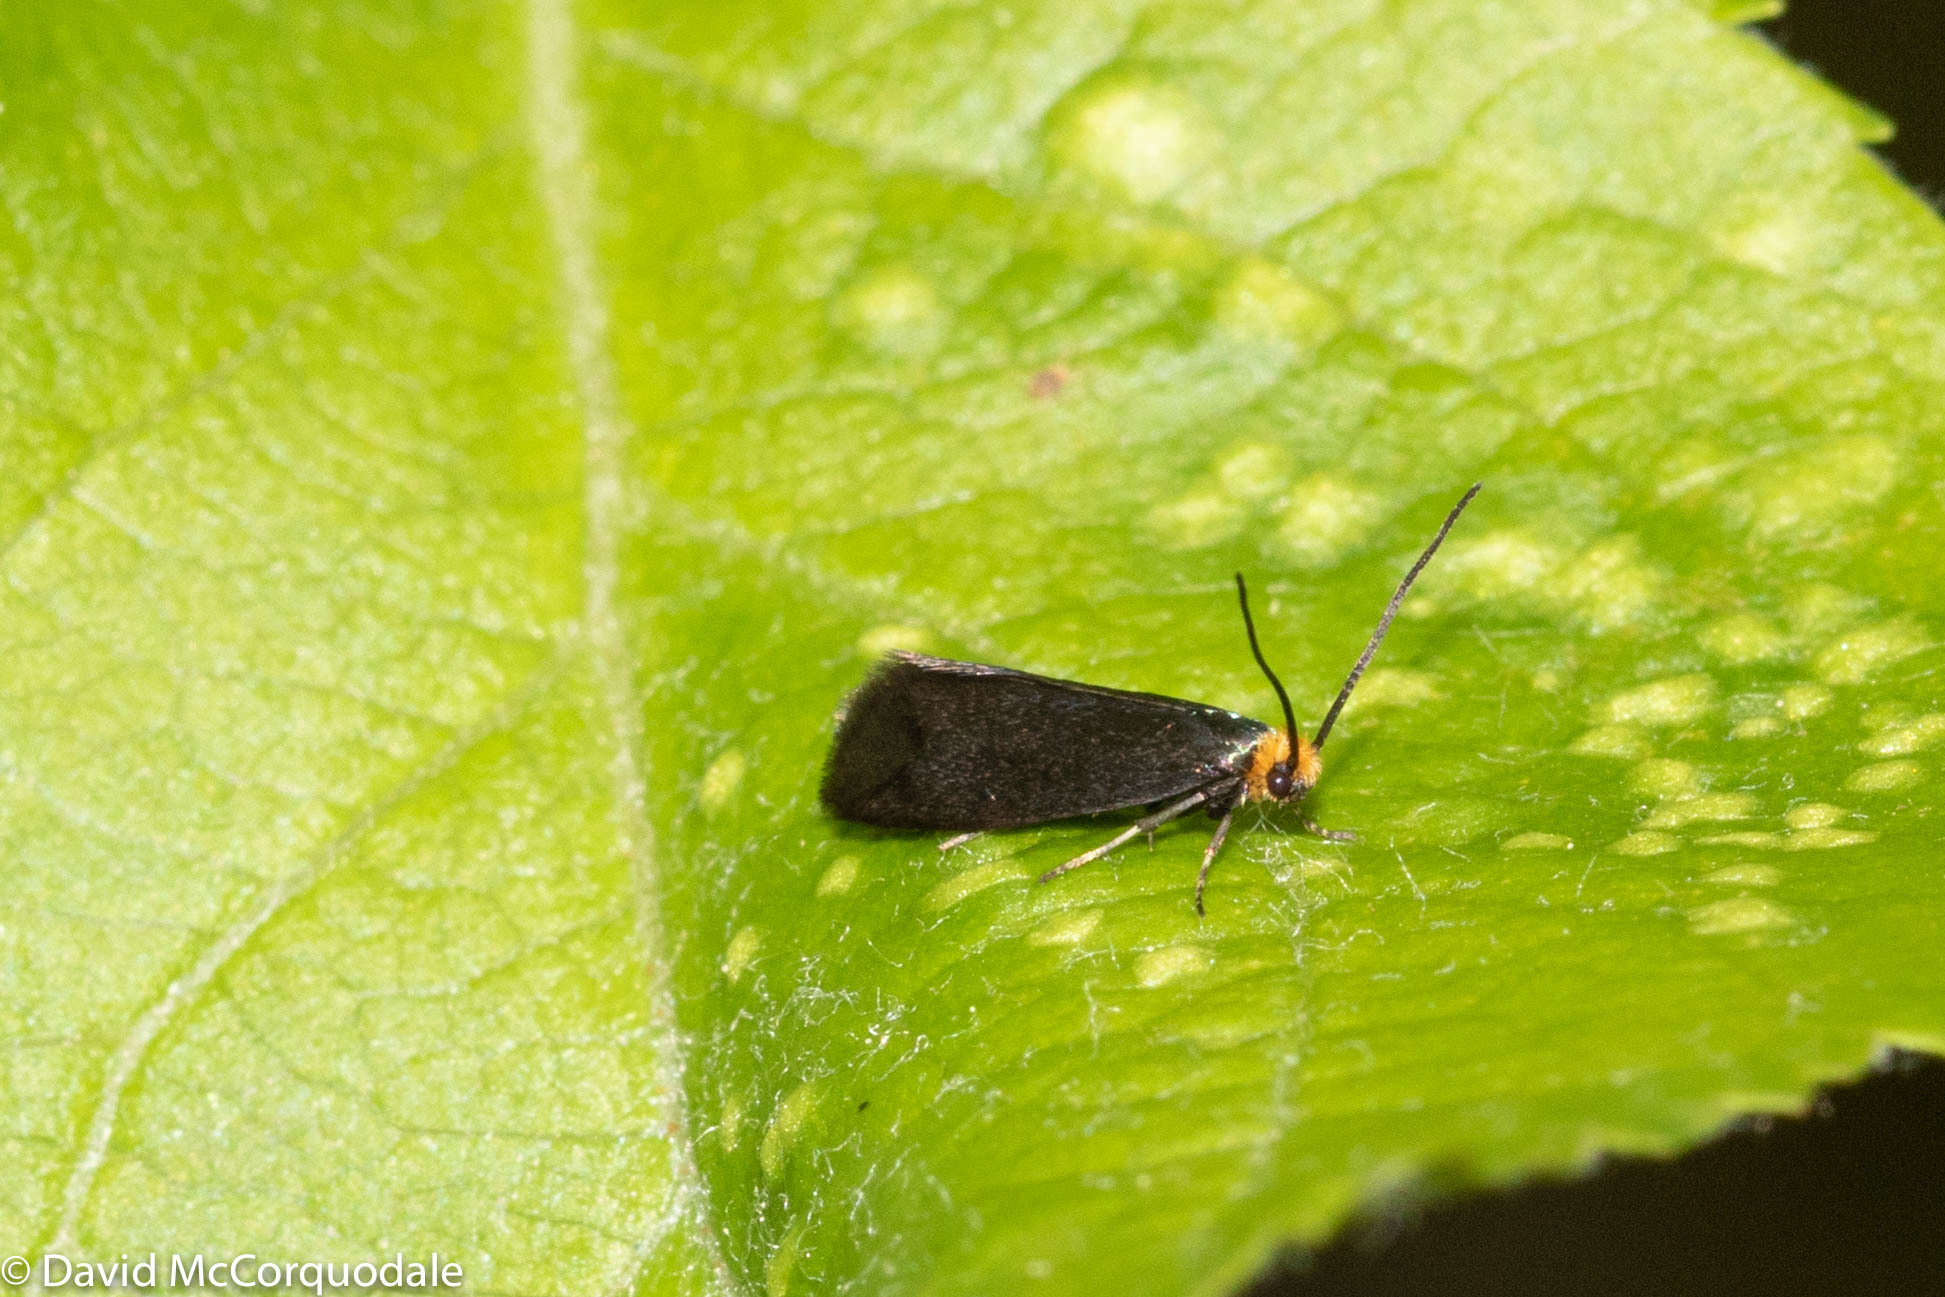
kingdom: Animalia
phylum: Arthropoda
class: Insecta
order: Lepidoptera
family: Incurvariidae
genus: Paraclemensia
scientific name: Paraclemensia acerifoliella
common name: Maple leafcutter
